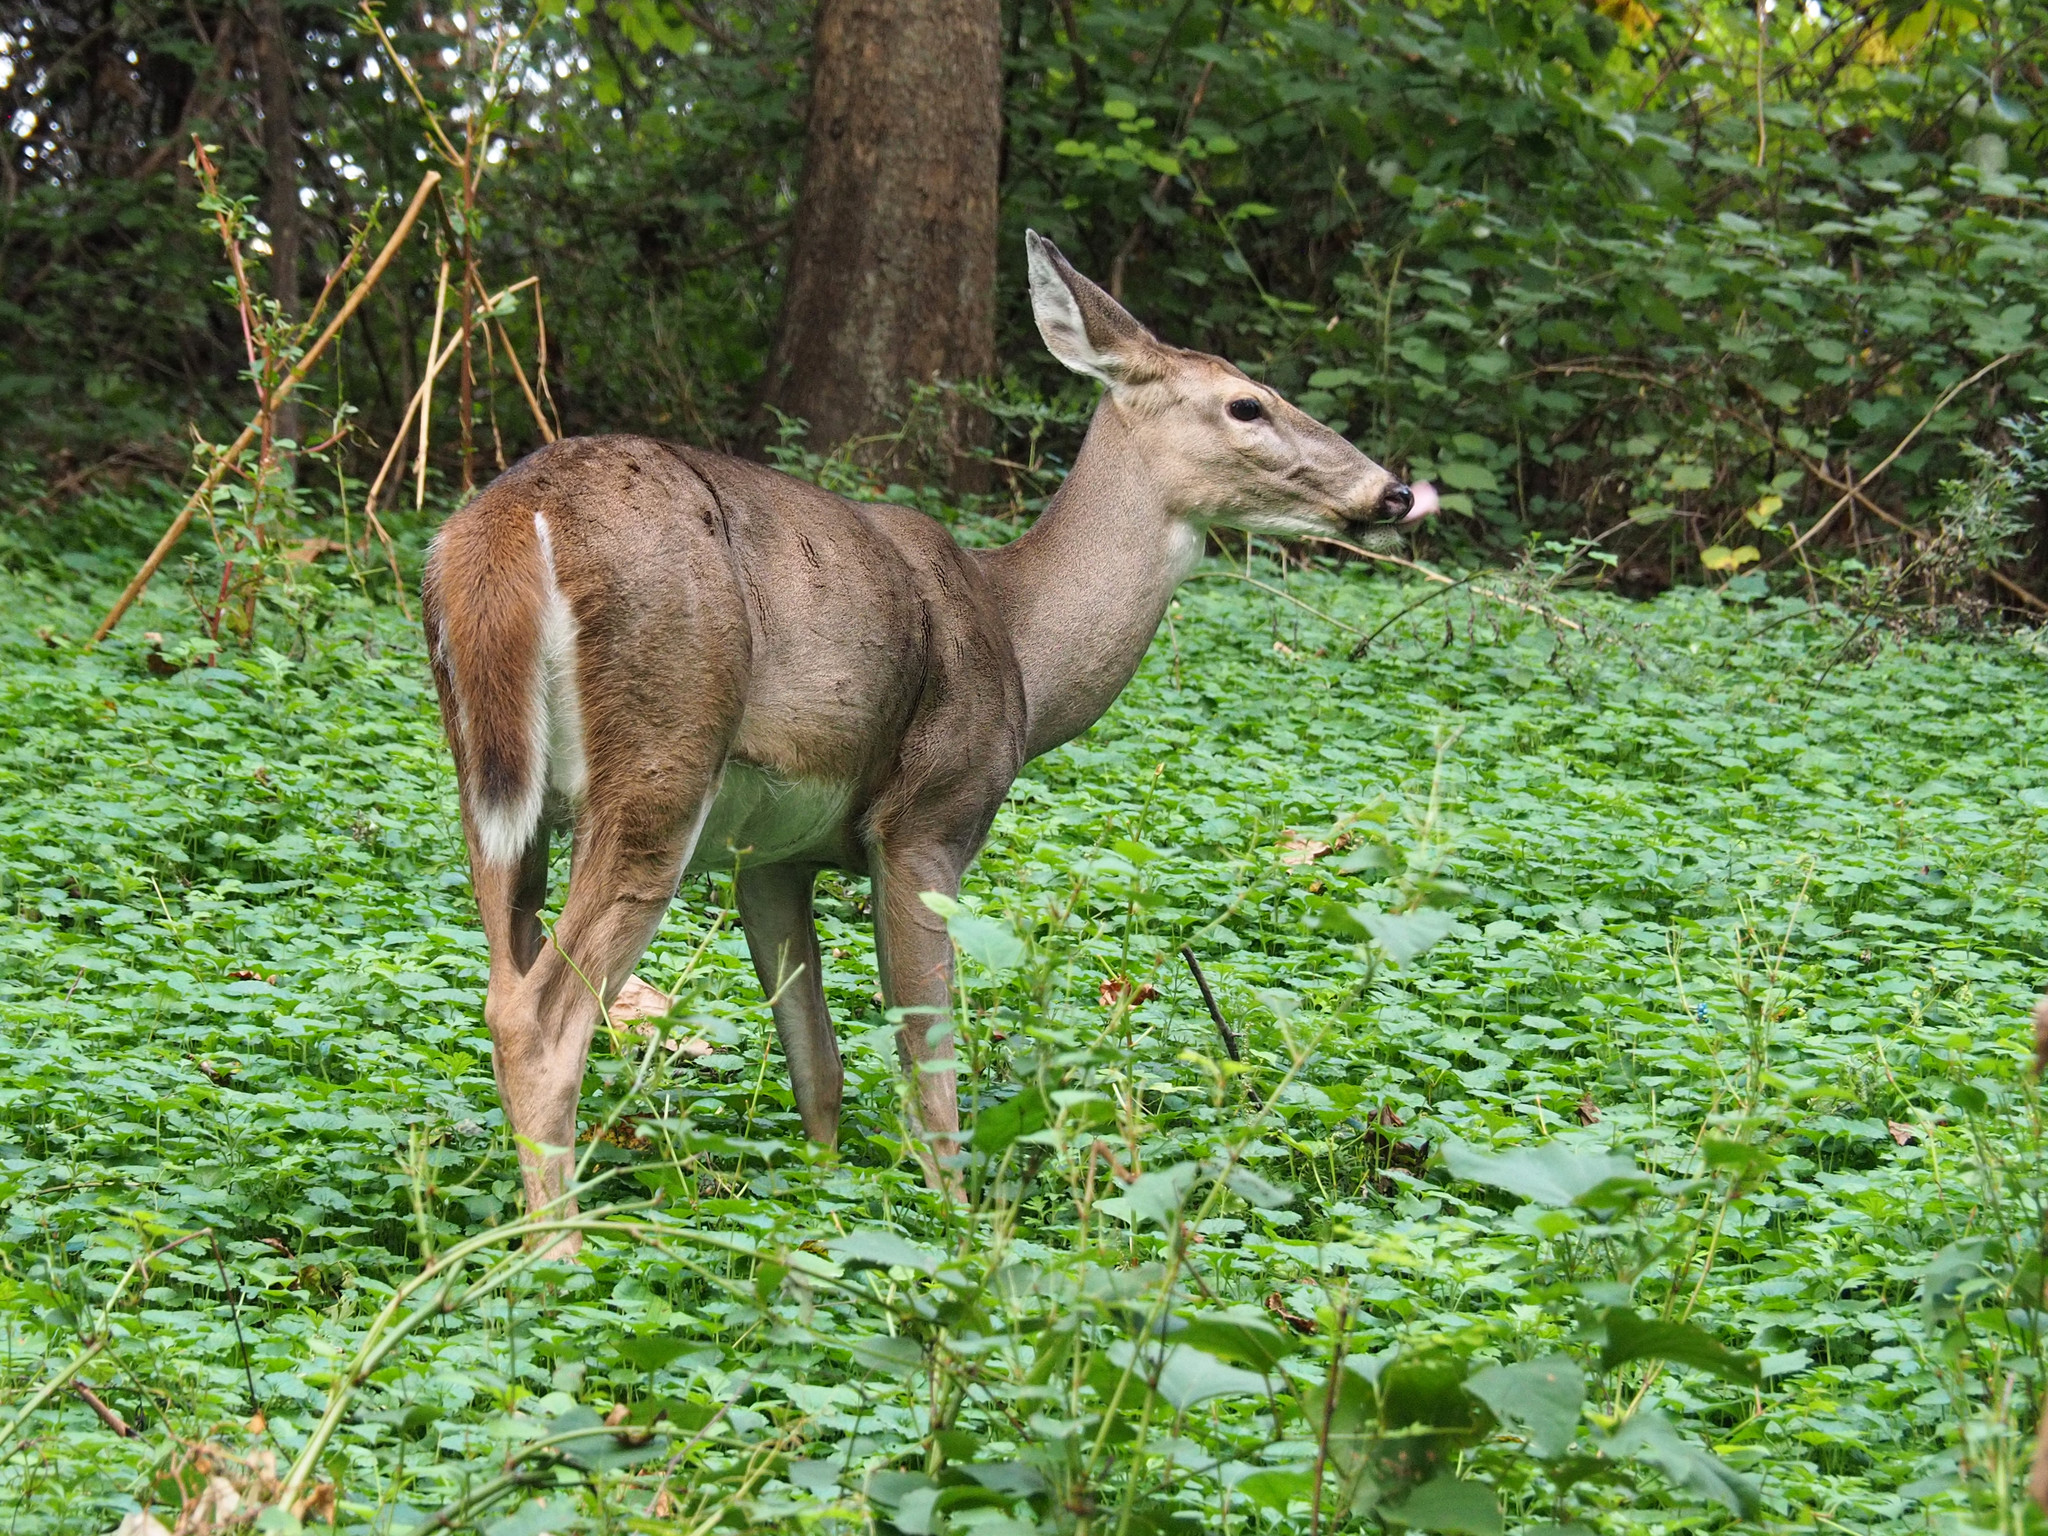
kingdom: Animalia
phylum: Chordata
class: Mammalia
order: Artiodactyla
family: Cervidae
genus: Odocoileus
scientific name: Odocoileus virginianus
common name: White-tailed deer
